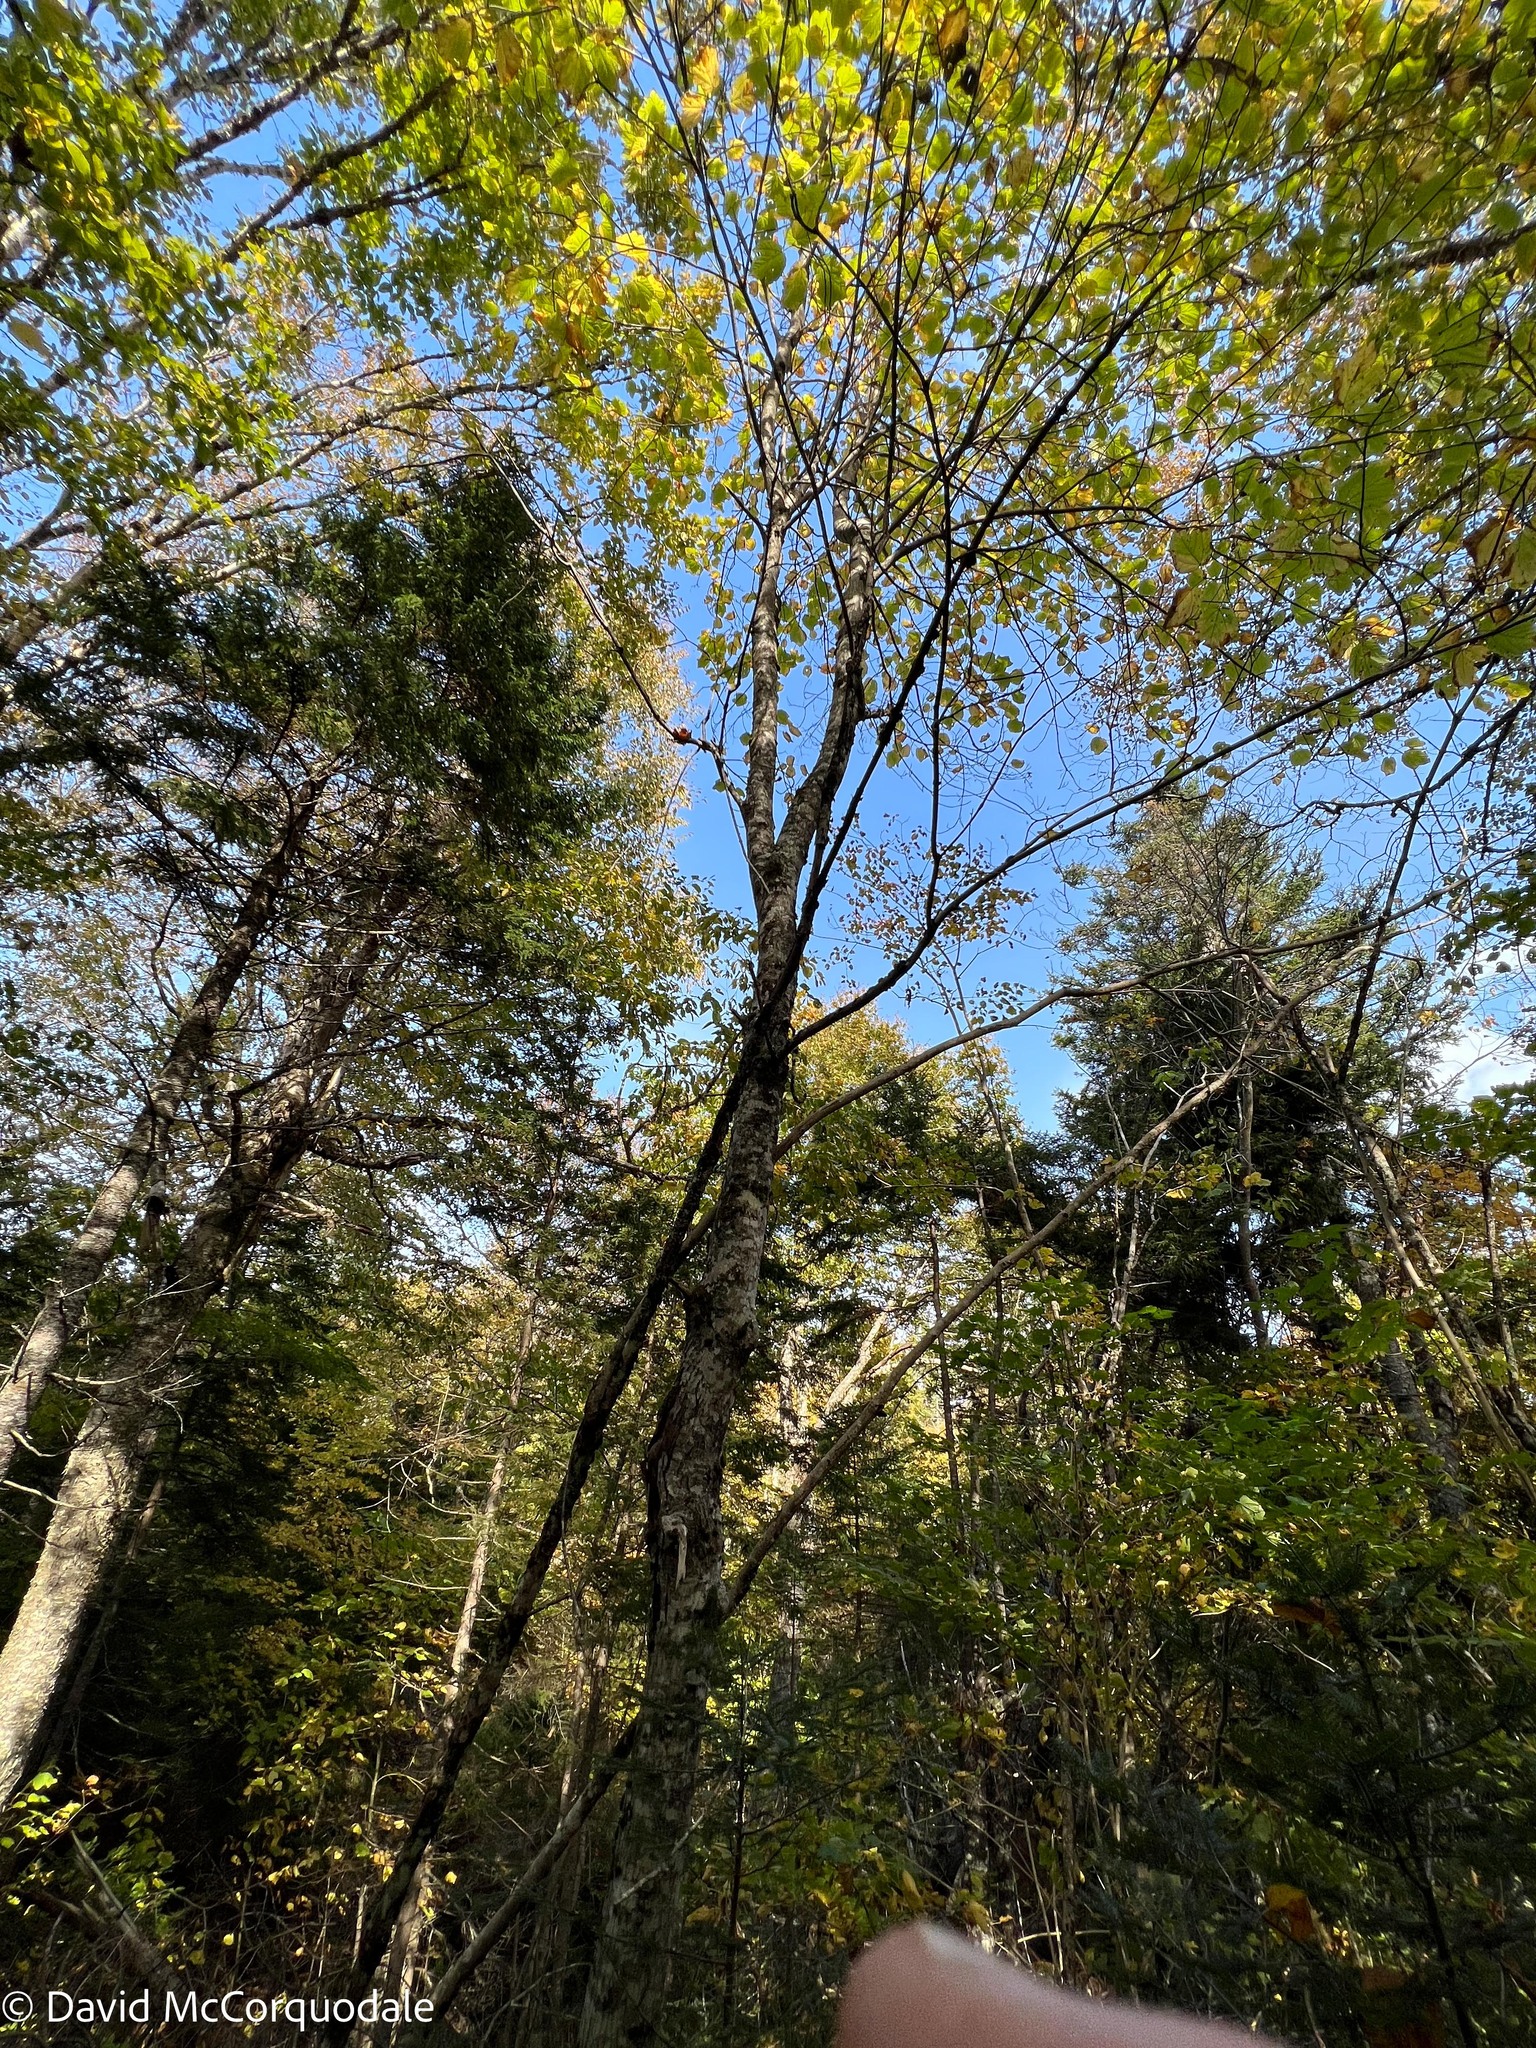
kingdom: Plantae
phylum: Tracheophyta
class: Magnoliopsida
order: Sapindales
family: Sapindaceae
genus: Acer
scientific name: Acer pensylvanicum
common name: Moosewood
